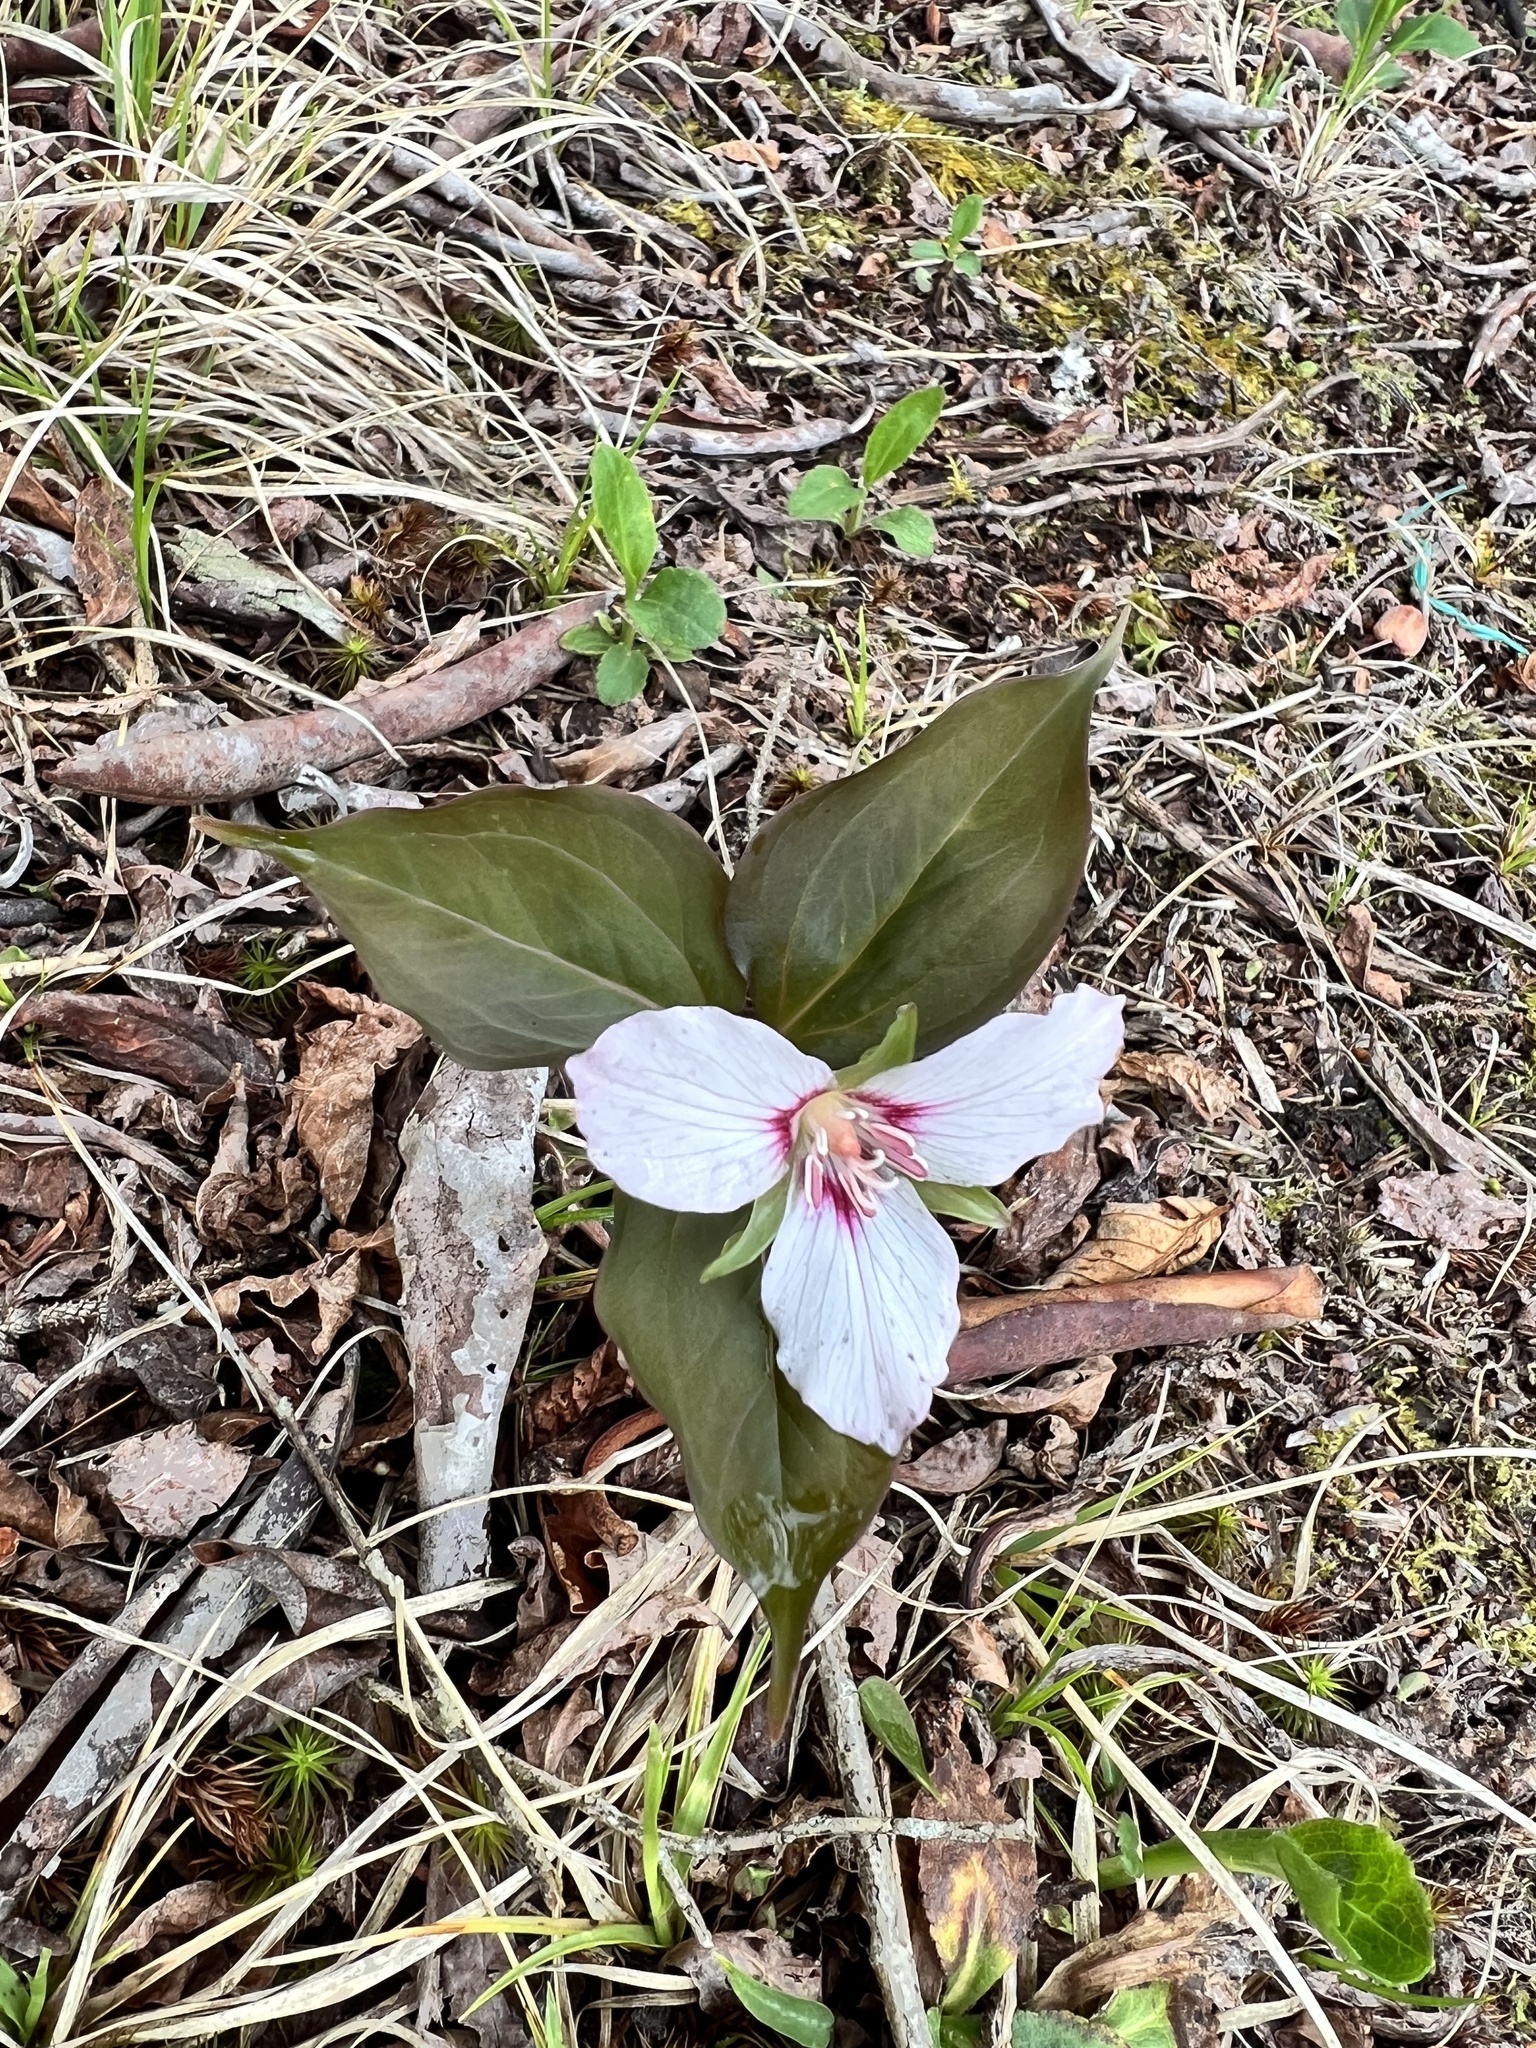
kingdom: Plantae
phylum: Tracheophyta
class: Liliopsida
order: Liliales
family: Melanthiaceae
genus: Trillium
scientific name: Trillium undulatum
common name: Paint trillium
